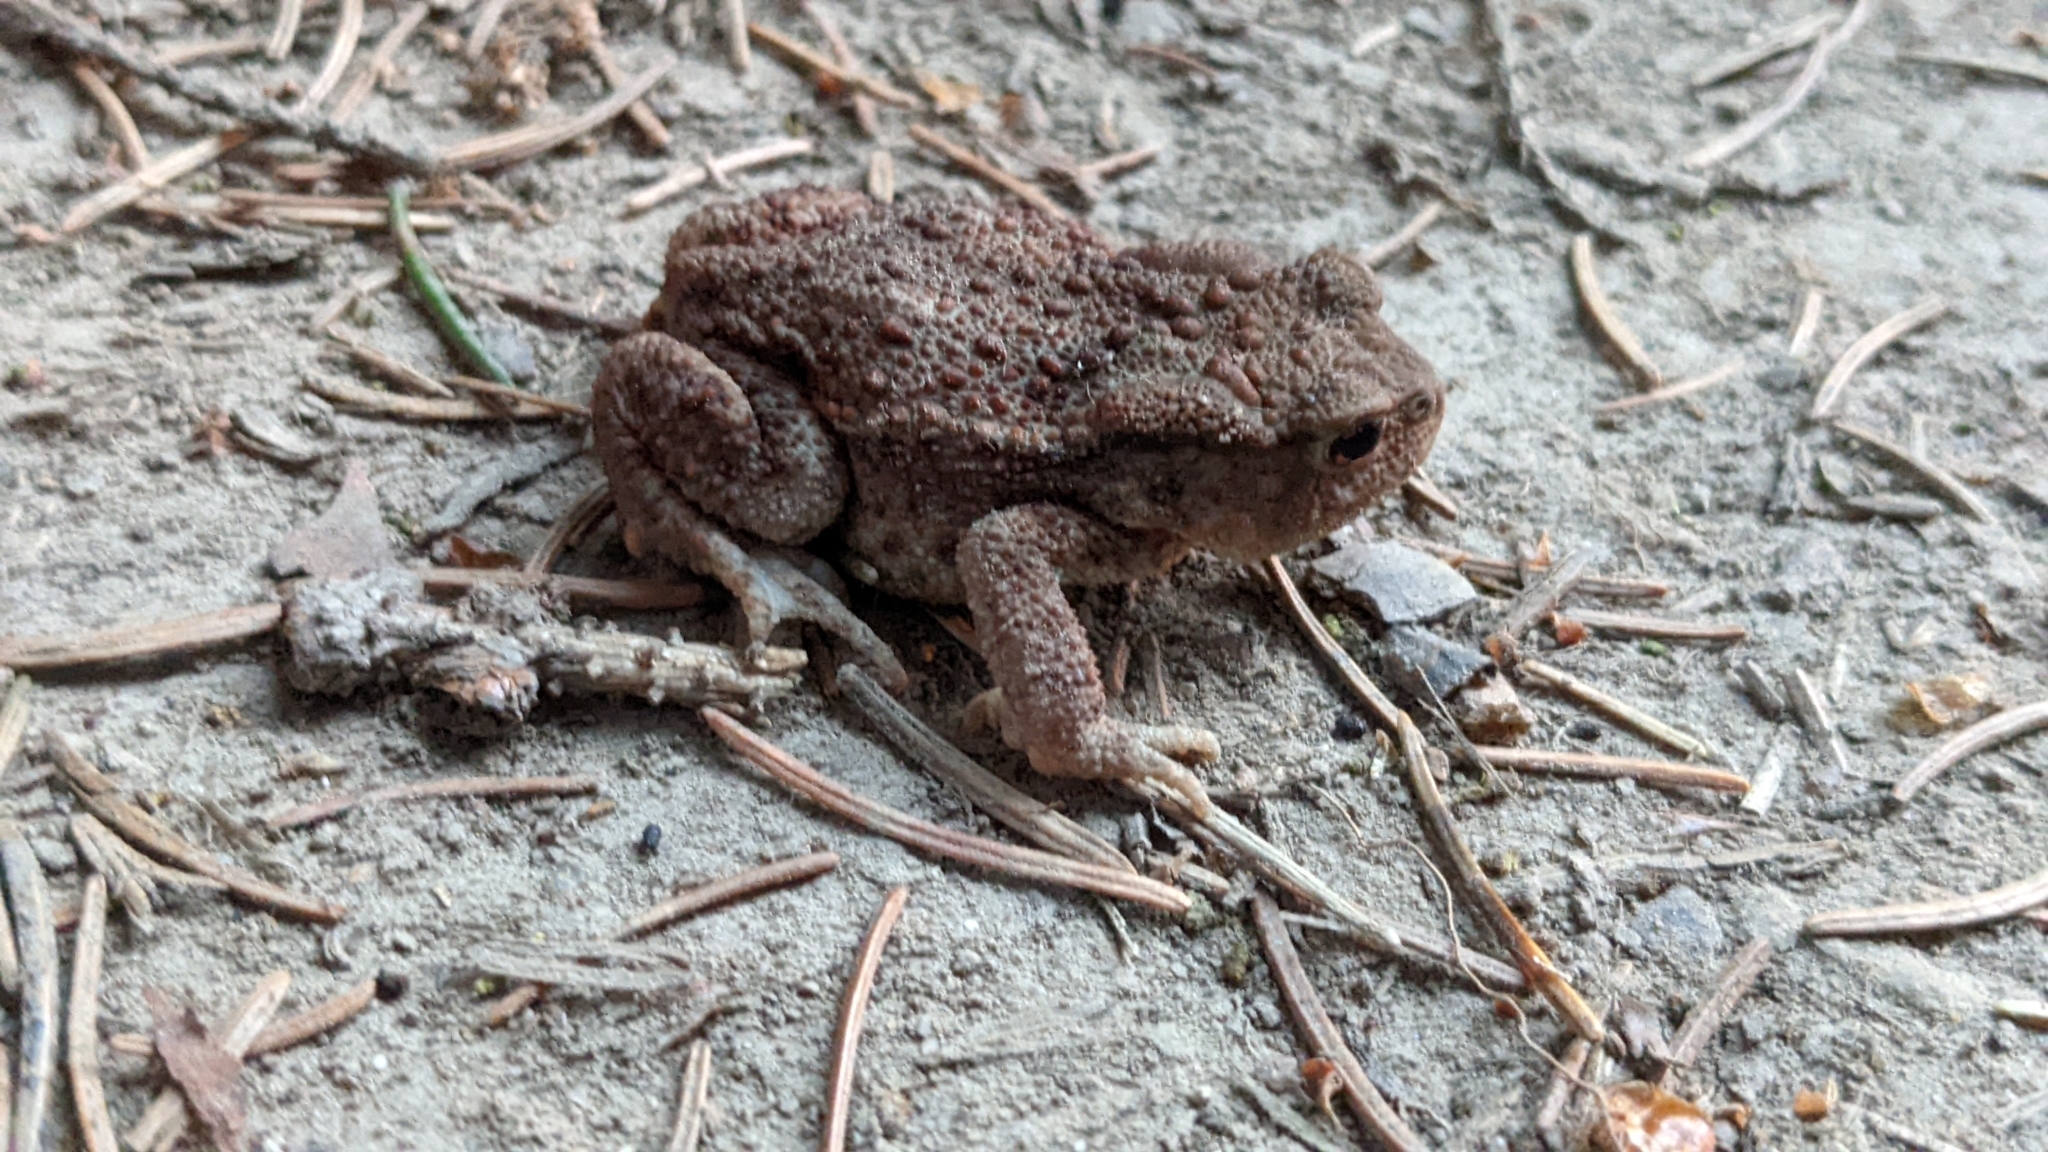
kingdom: Animalia
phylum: Chordata
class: Amphibia
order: Anura
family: Bufonidae
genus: Bufo
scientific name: Bufo bufo
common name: Common toad
